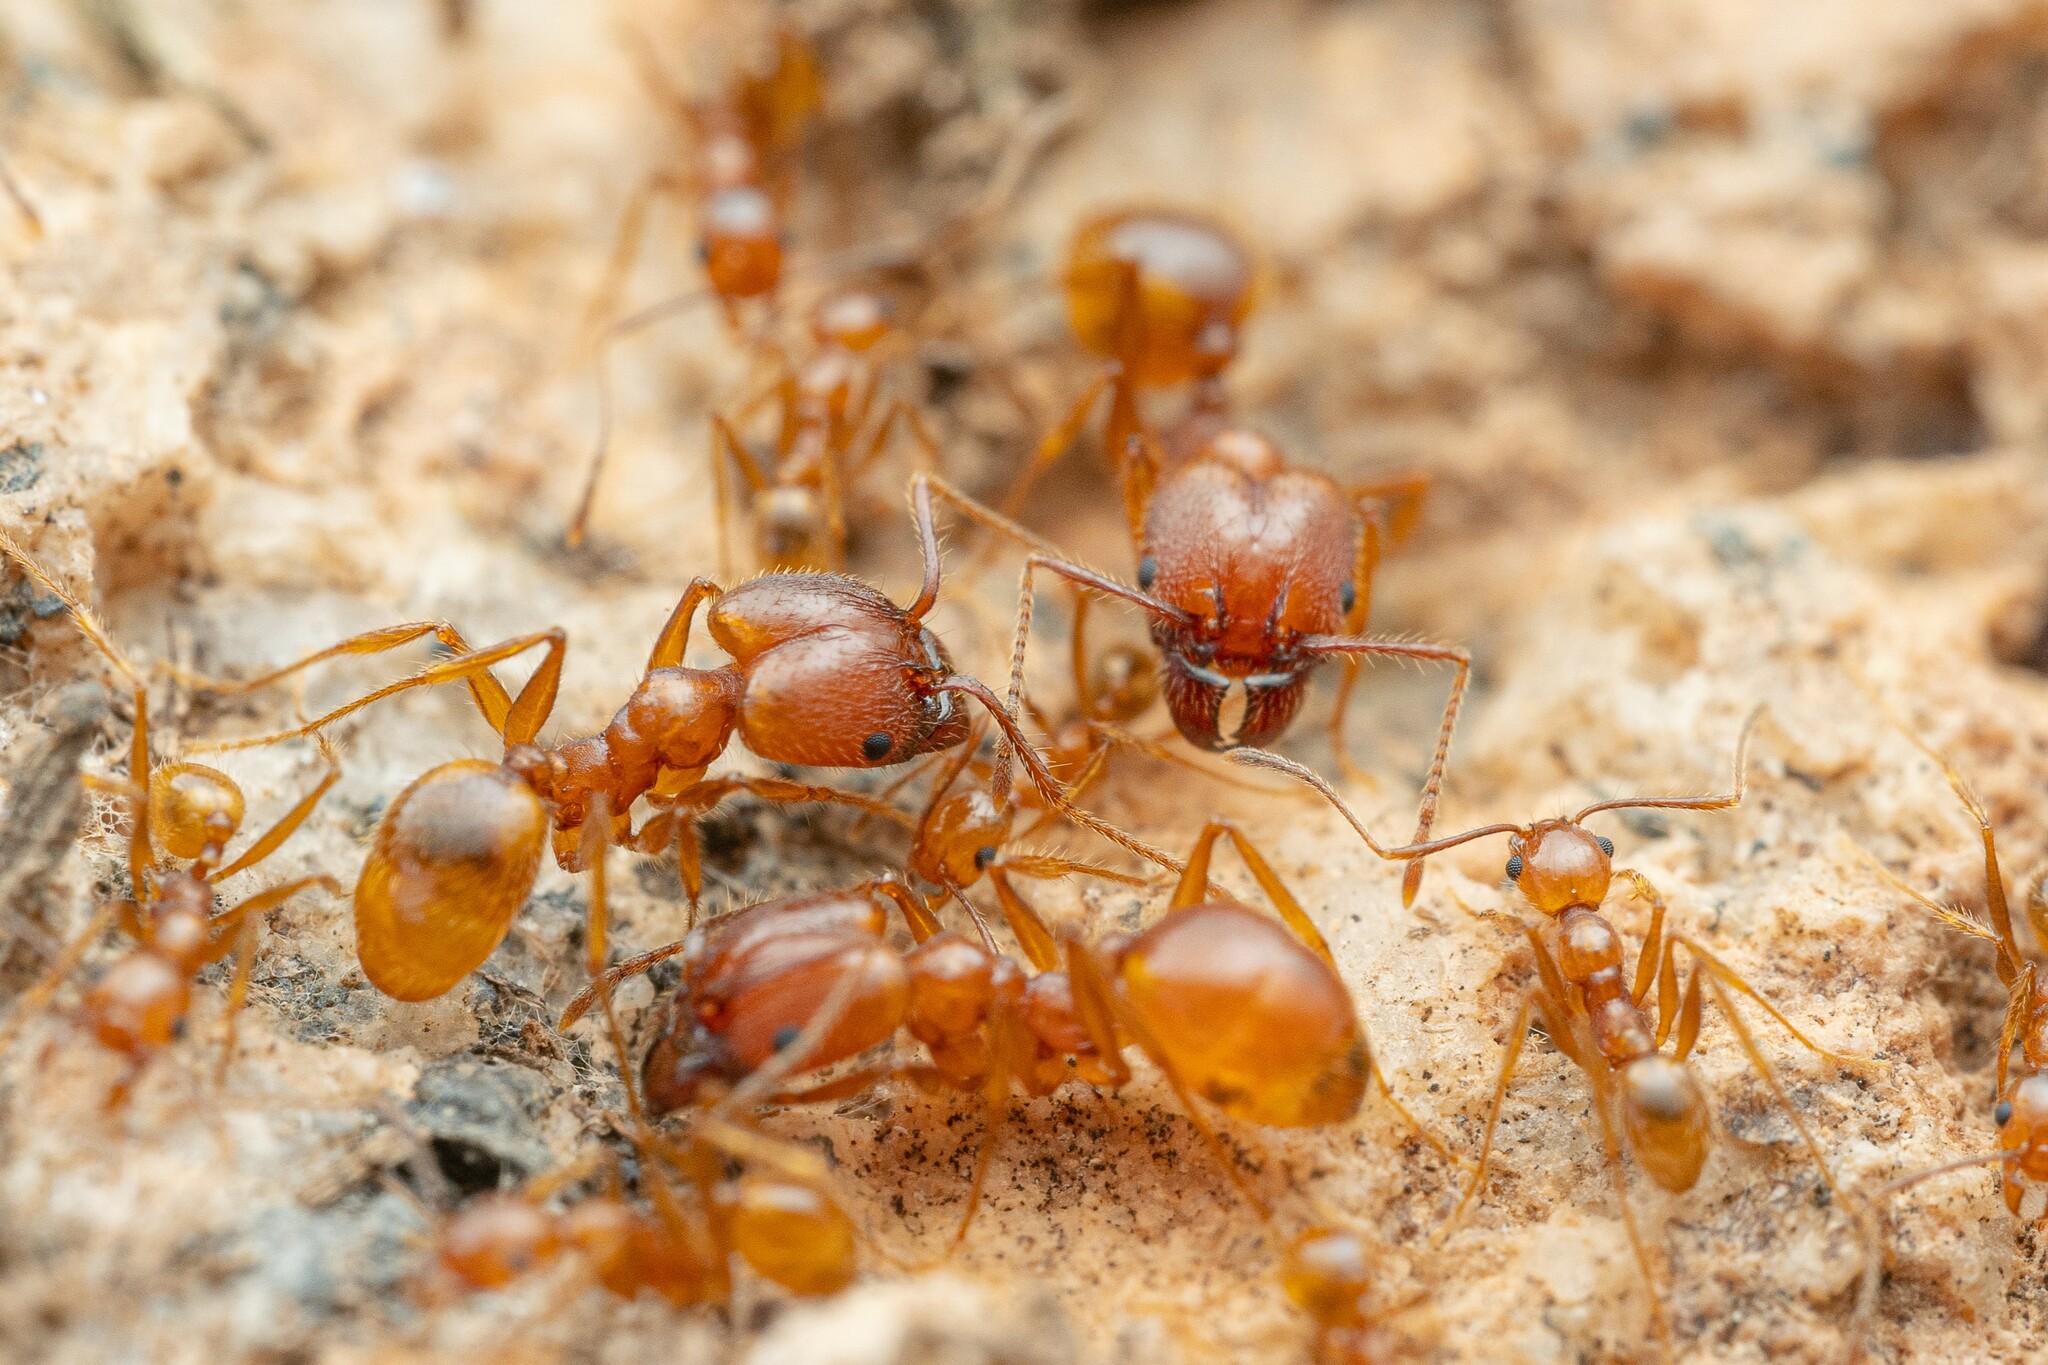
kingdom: Animalia
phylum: Arthropoda
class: Insecta
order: Hymenoptera
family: Formicidae
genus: Pheidole
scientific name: Pheidole hyatti
